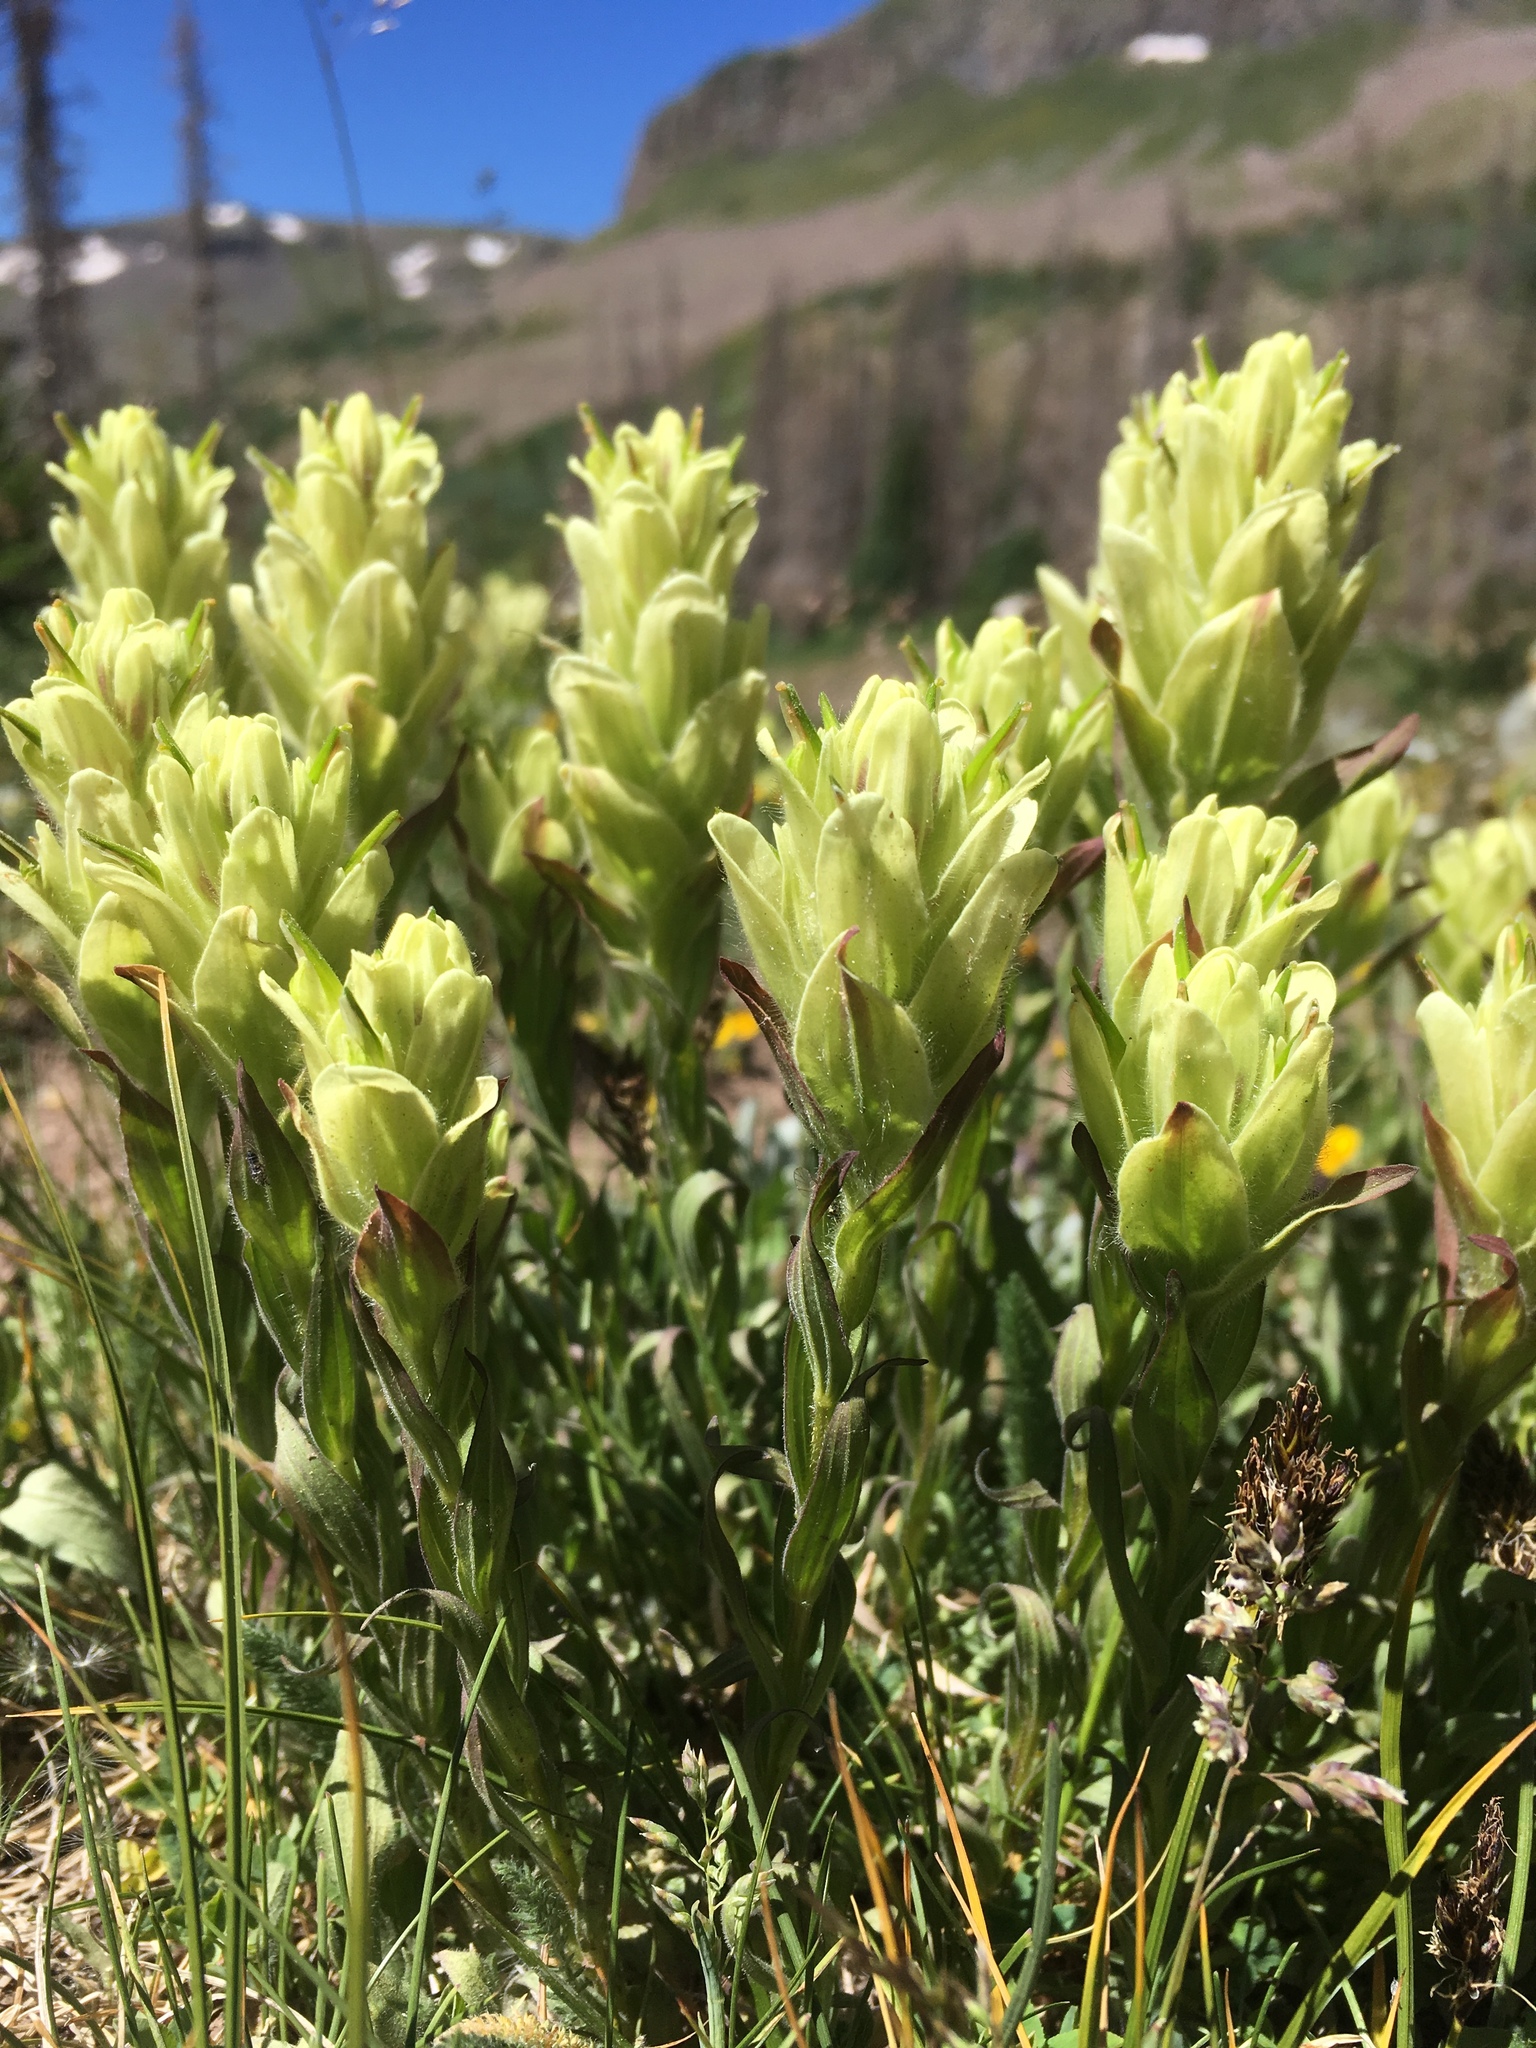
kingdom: Plantae
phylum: Tracheophyta
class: Magnoliopsida
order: Lamiales
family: Orobanchaceae
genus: Castilleja
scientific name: Castilleja septentrionalis
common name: Northeastern paintbrush
